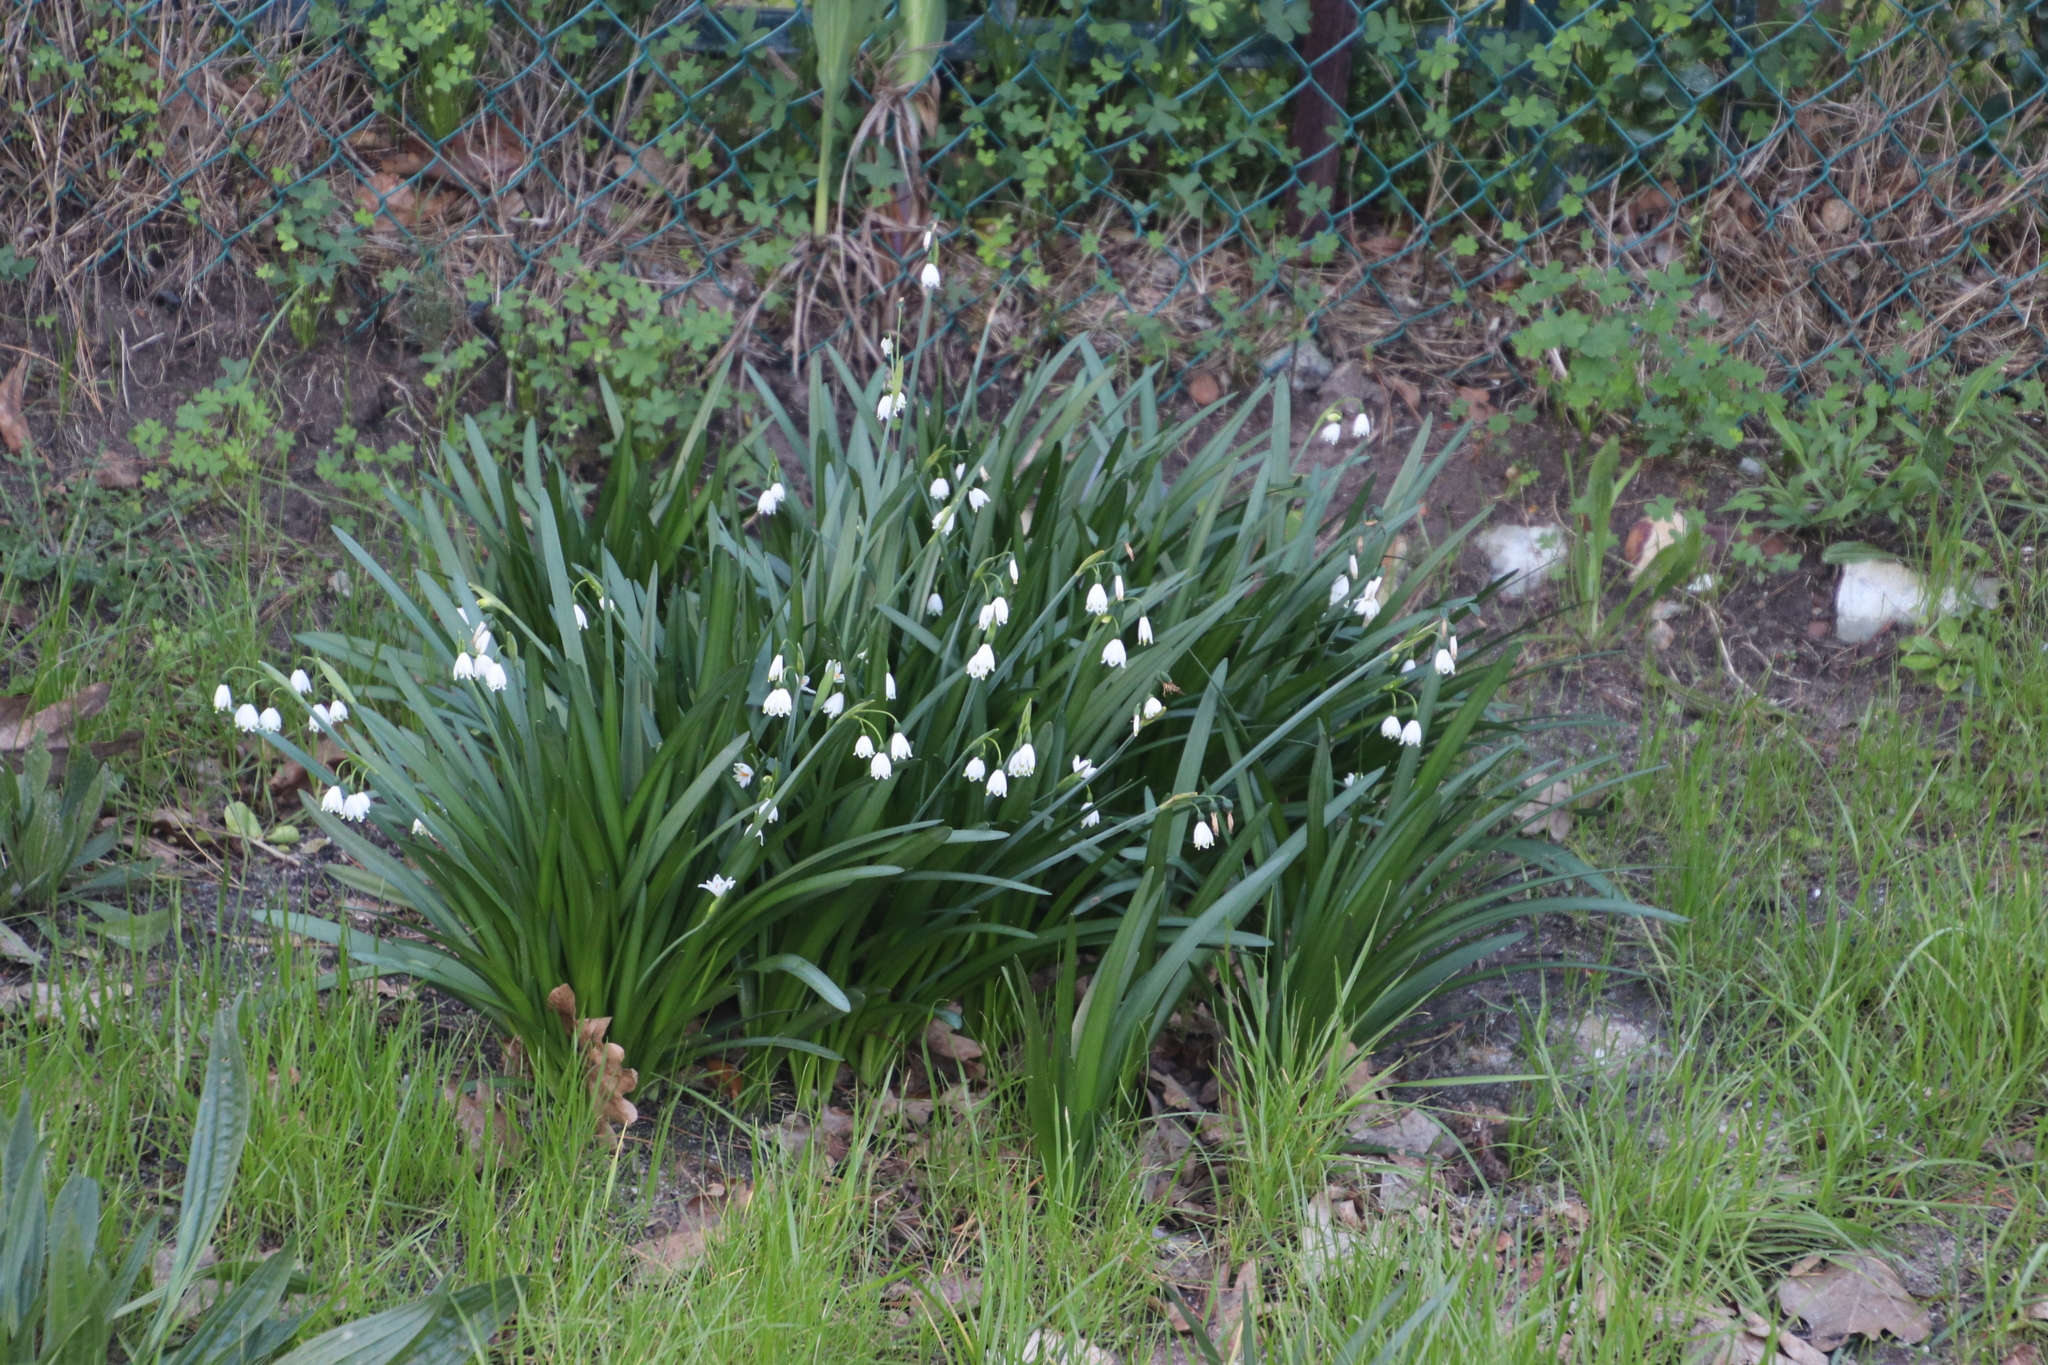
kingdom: Plantae
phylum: Tracheophyta
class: Liliopsida
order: Asparagales
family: Amaryllidaceae
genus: Leucojum
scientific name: Leucojum aestivum
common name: Summer snowflake
